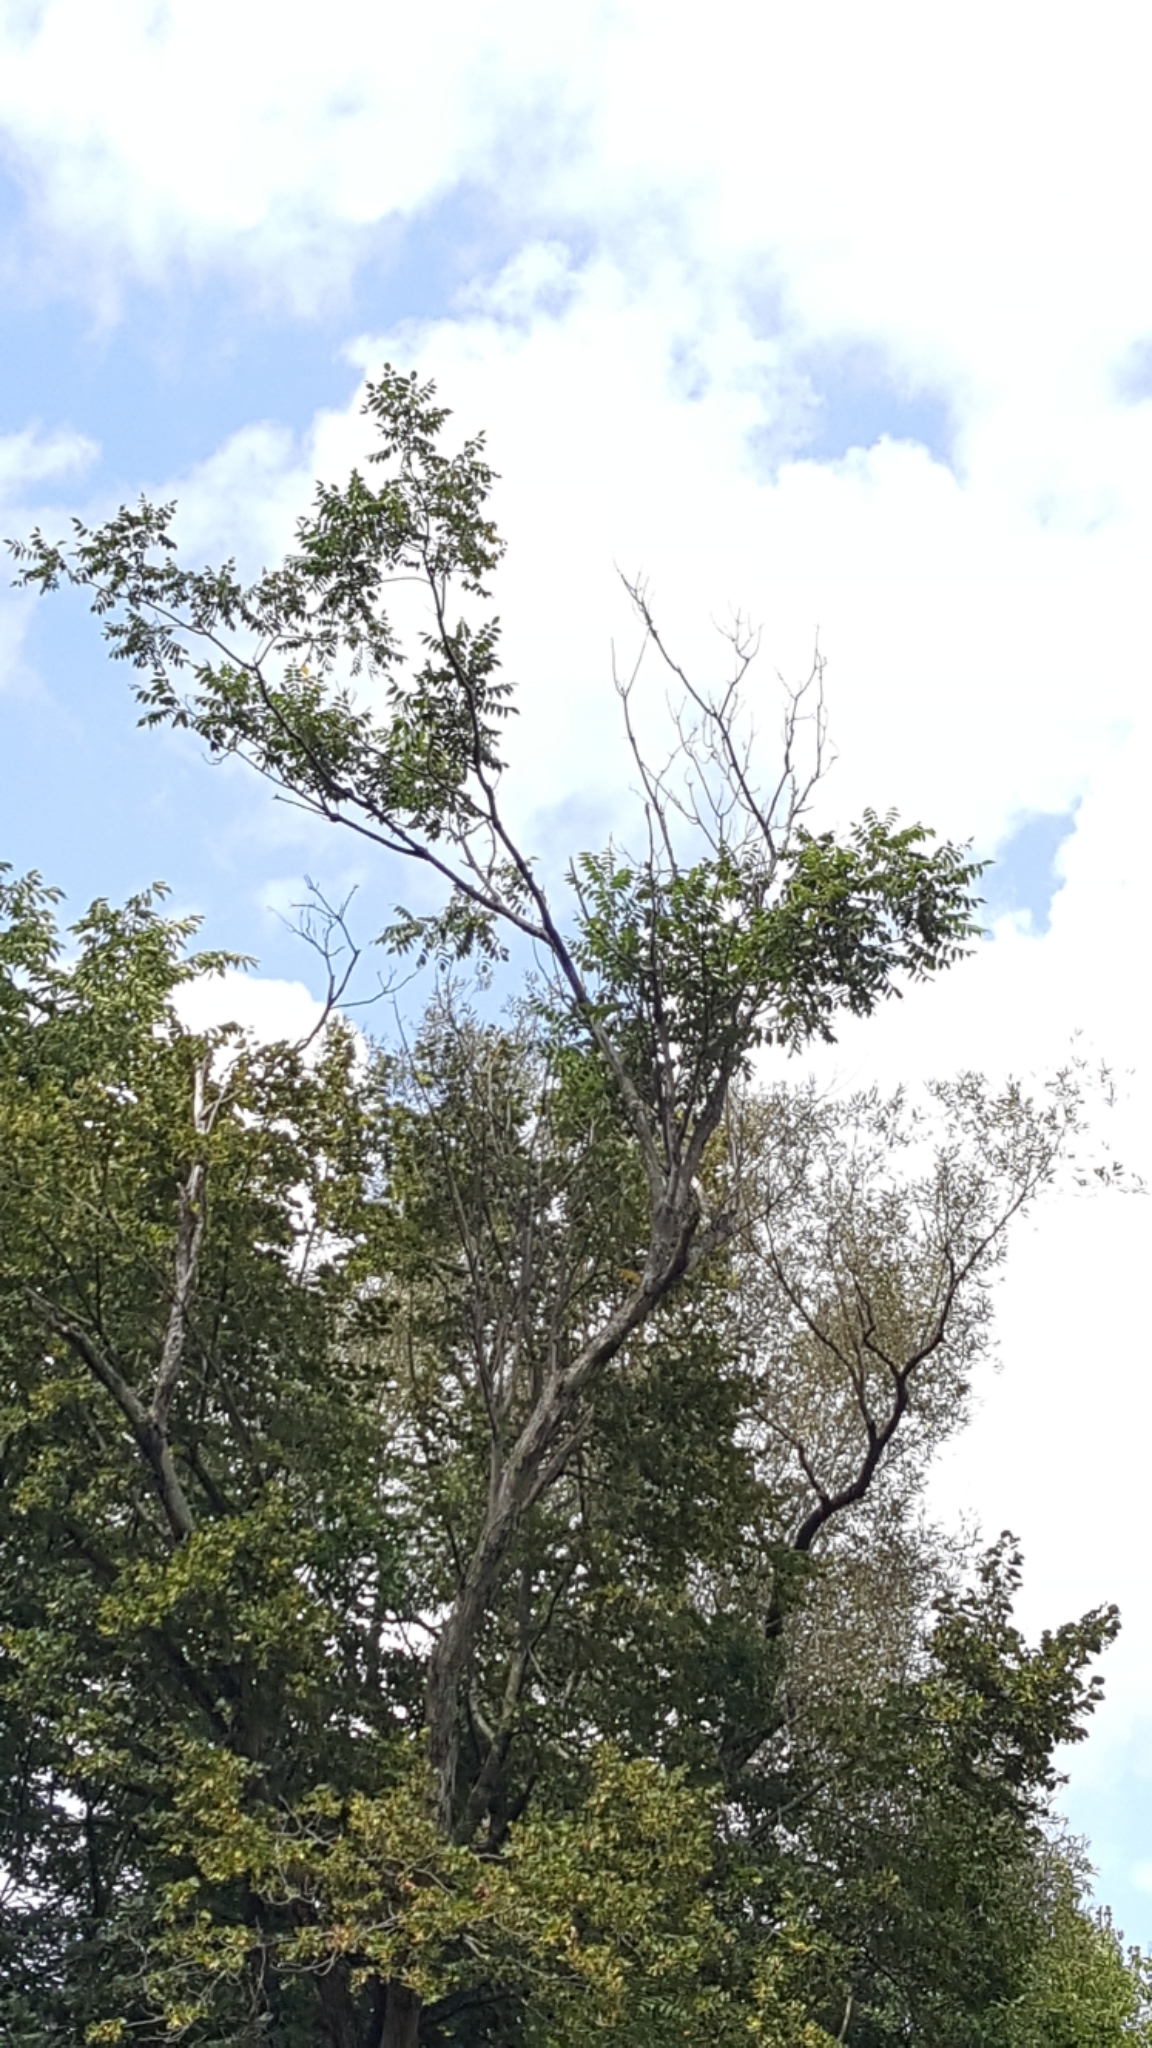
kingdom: Plantae
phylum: Tracheophyta
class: Magnoliopsida
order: Fagales
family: Juglandaceae
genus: Juglans
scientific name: Juglans cinerea
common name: Butternut
